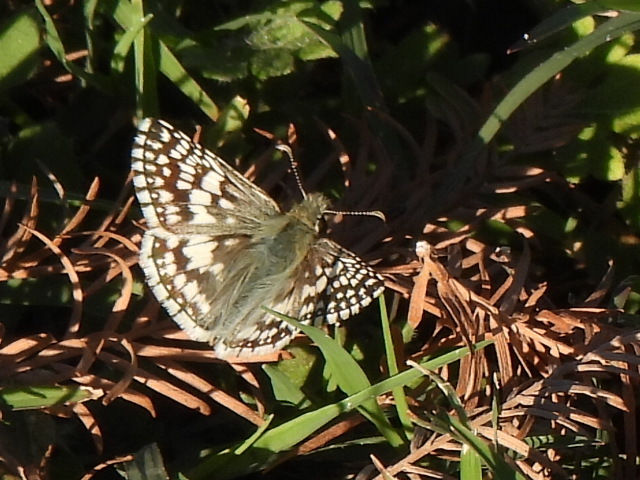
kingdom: Animalia
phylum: Arthropoda
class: Insecta
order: Lepidoptera
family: Hesperiidae
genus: Burnsius
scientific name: Burnsius
